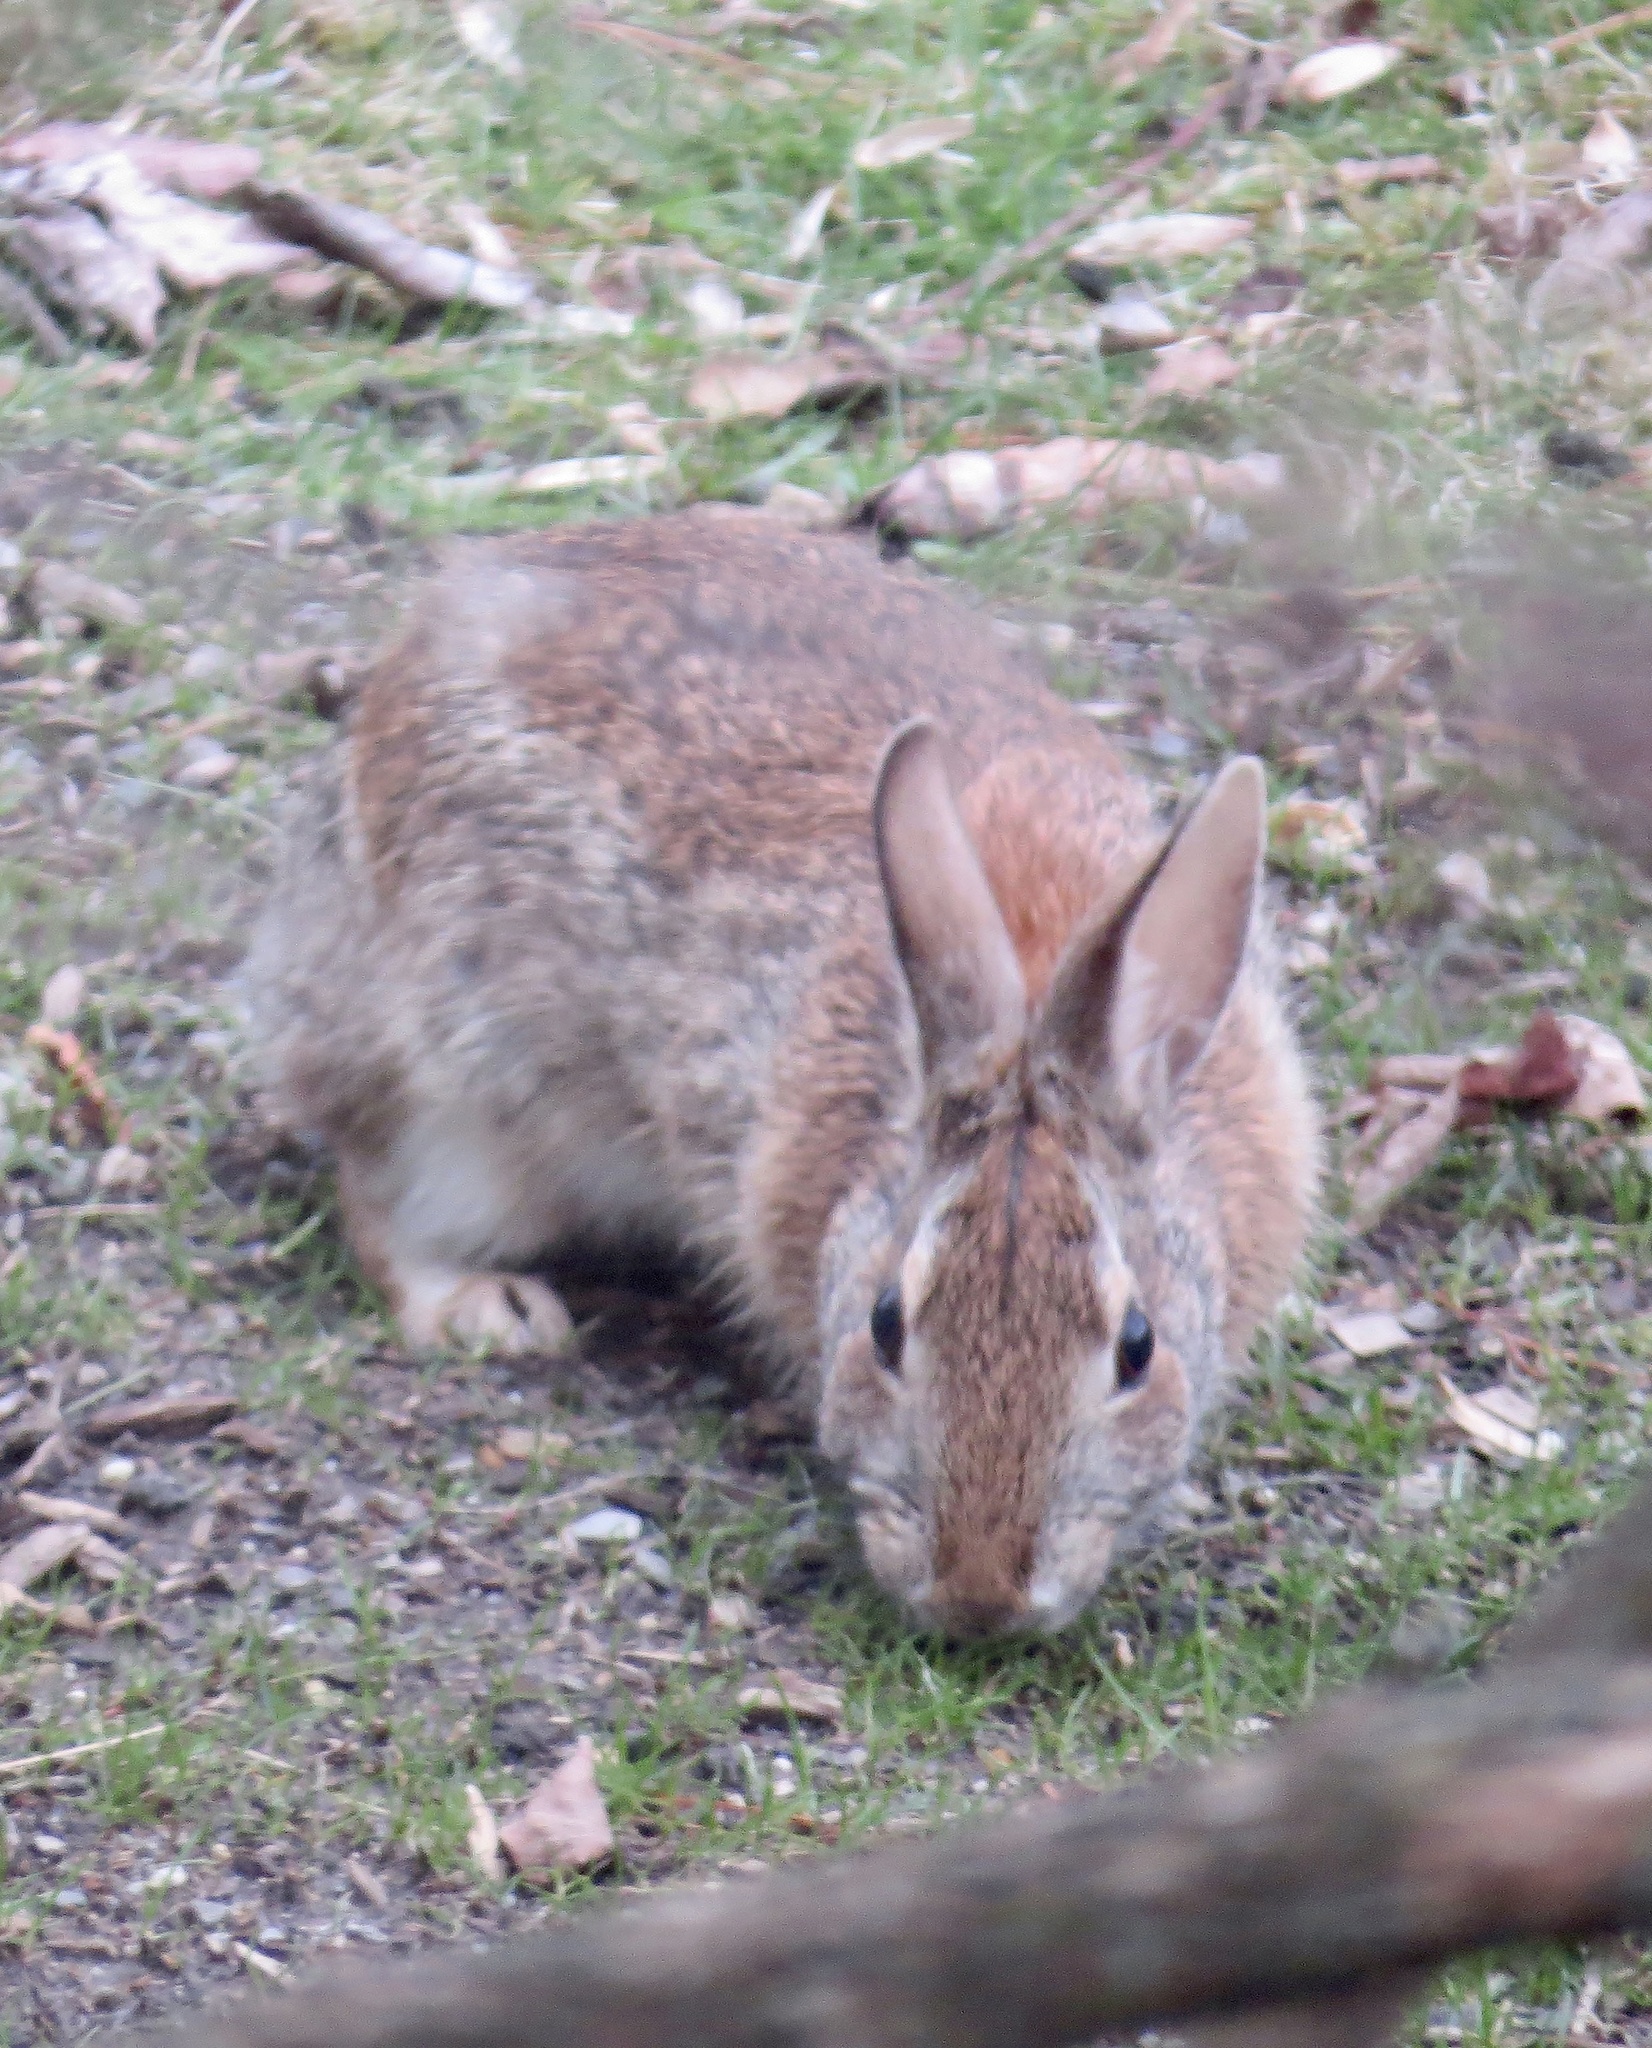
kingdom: Animalia
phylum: Chordata
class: Mammalia
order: Lagomorpha
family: Leporidae
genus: Sylvilagus
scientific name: Sylvilagus floridanus
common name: Eastern cottontail
